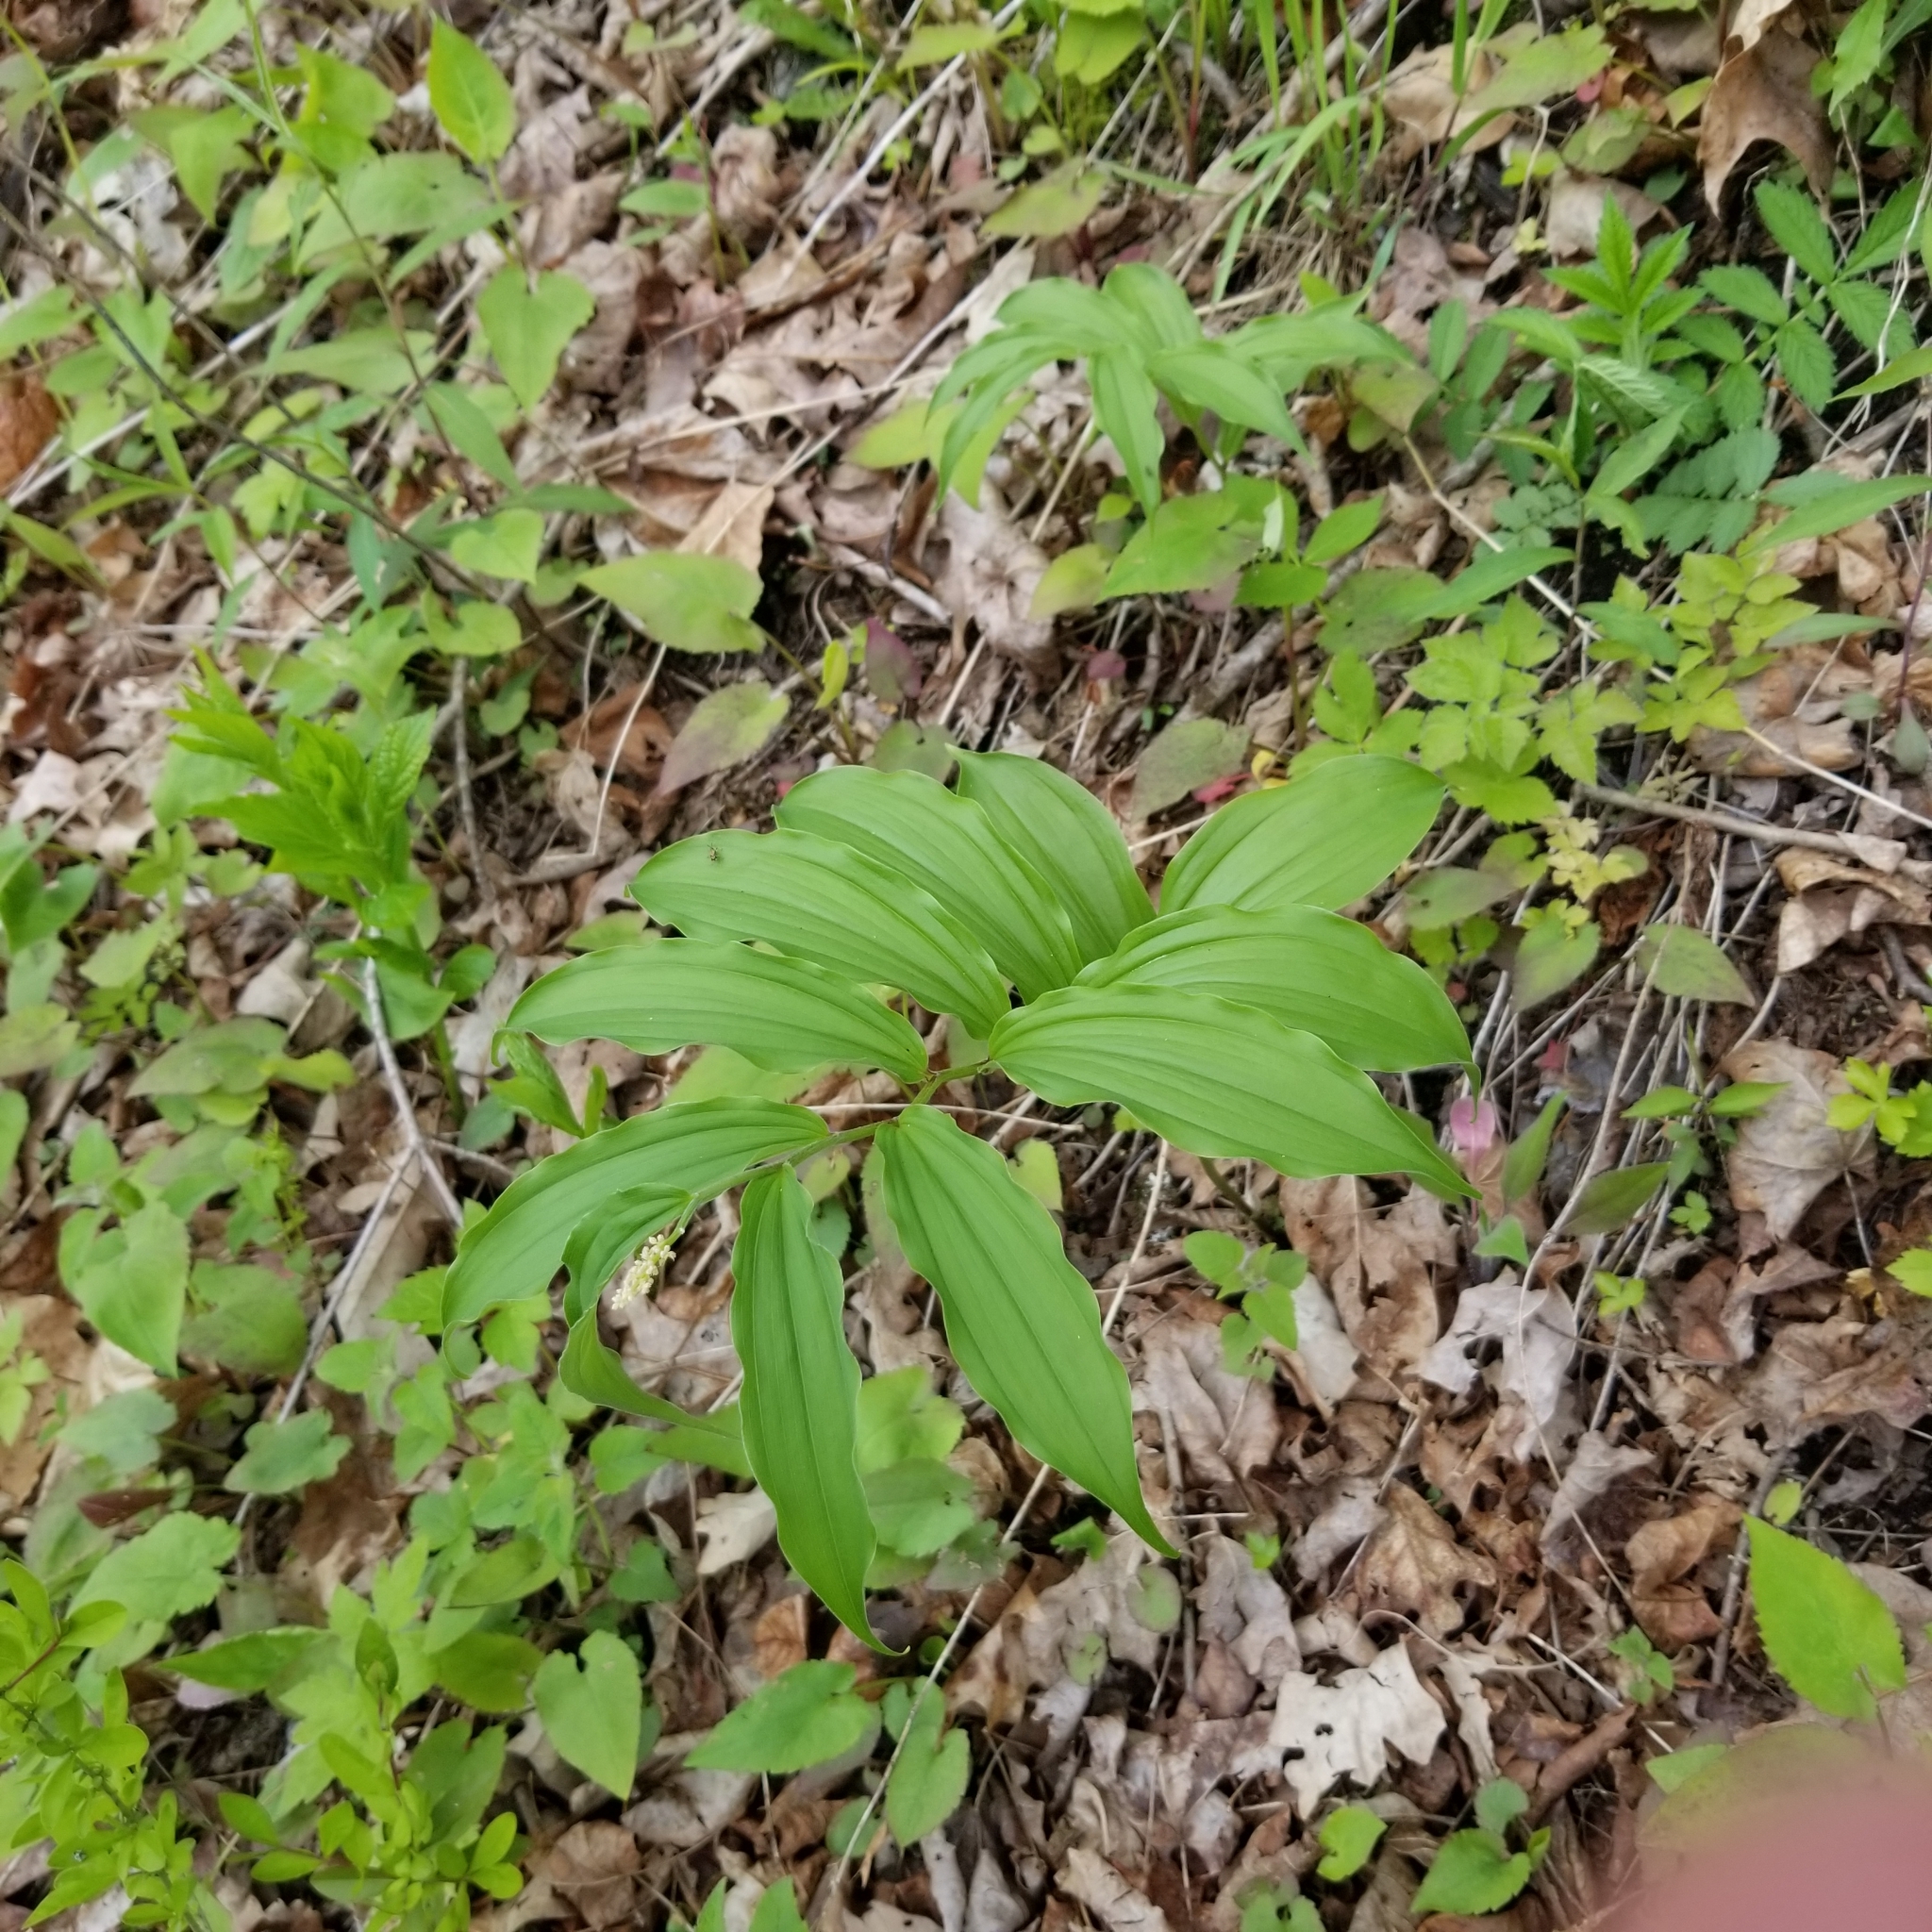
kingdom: Plantae
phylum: Tracheophyta
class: Liliopsida
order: Asparagales
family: Asparagaceae
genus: Maianthemum
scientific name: Maianthemum racemosum
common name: False spikenard
